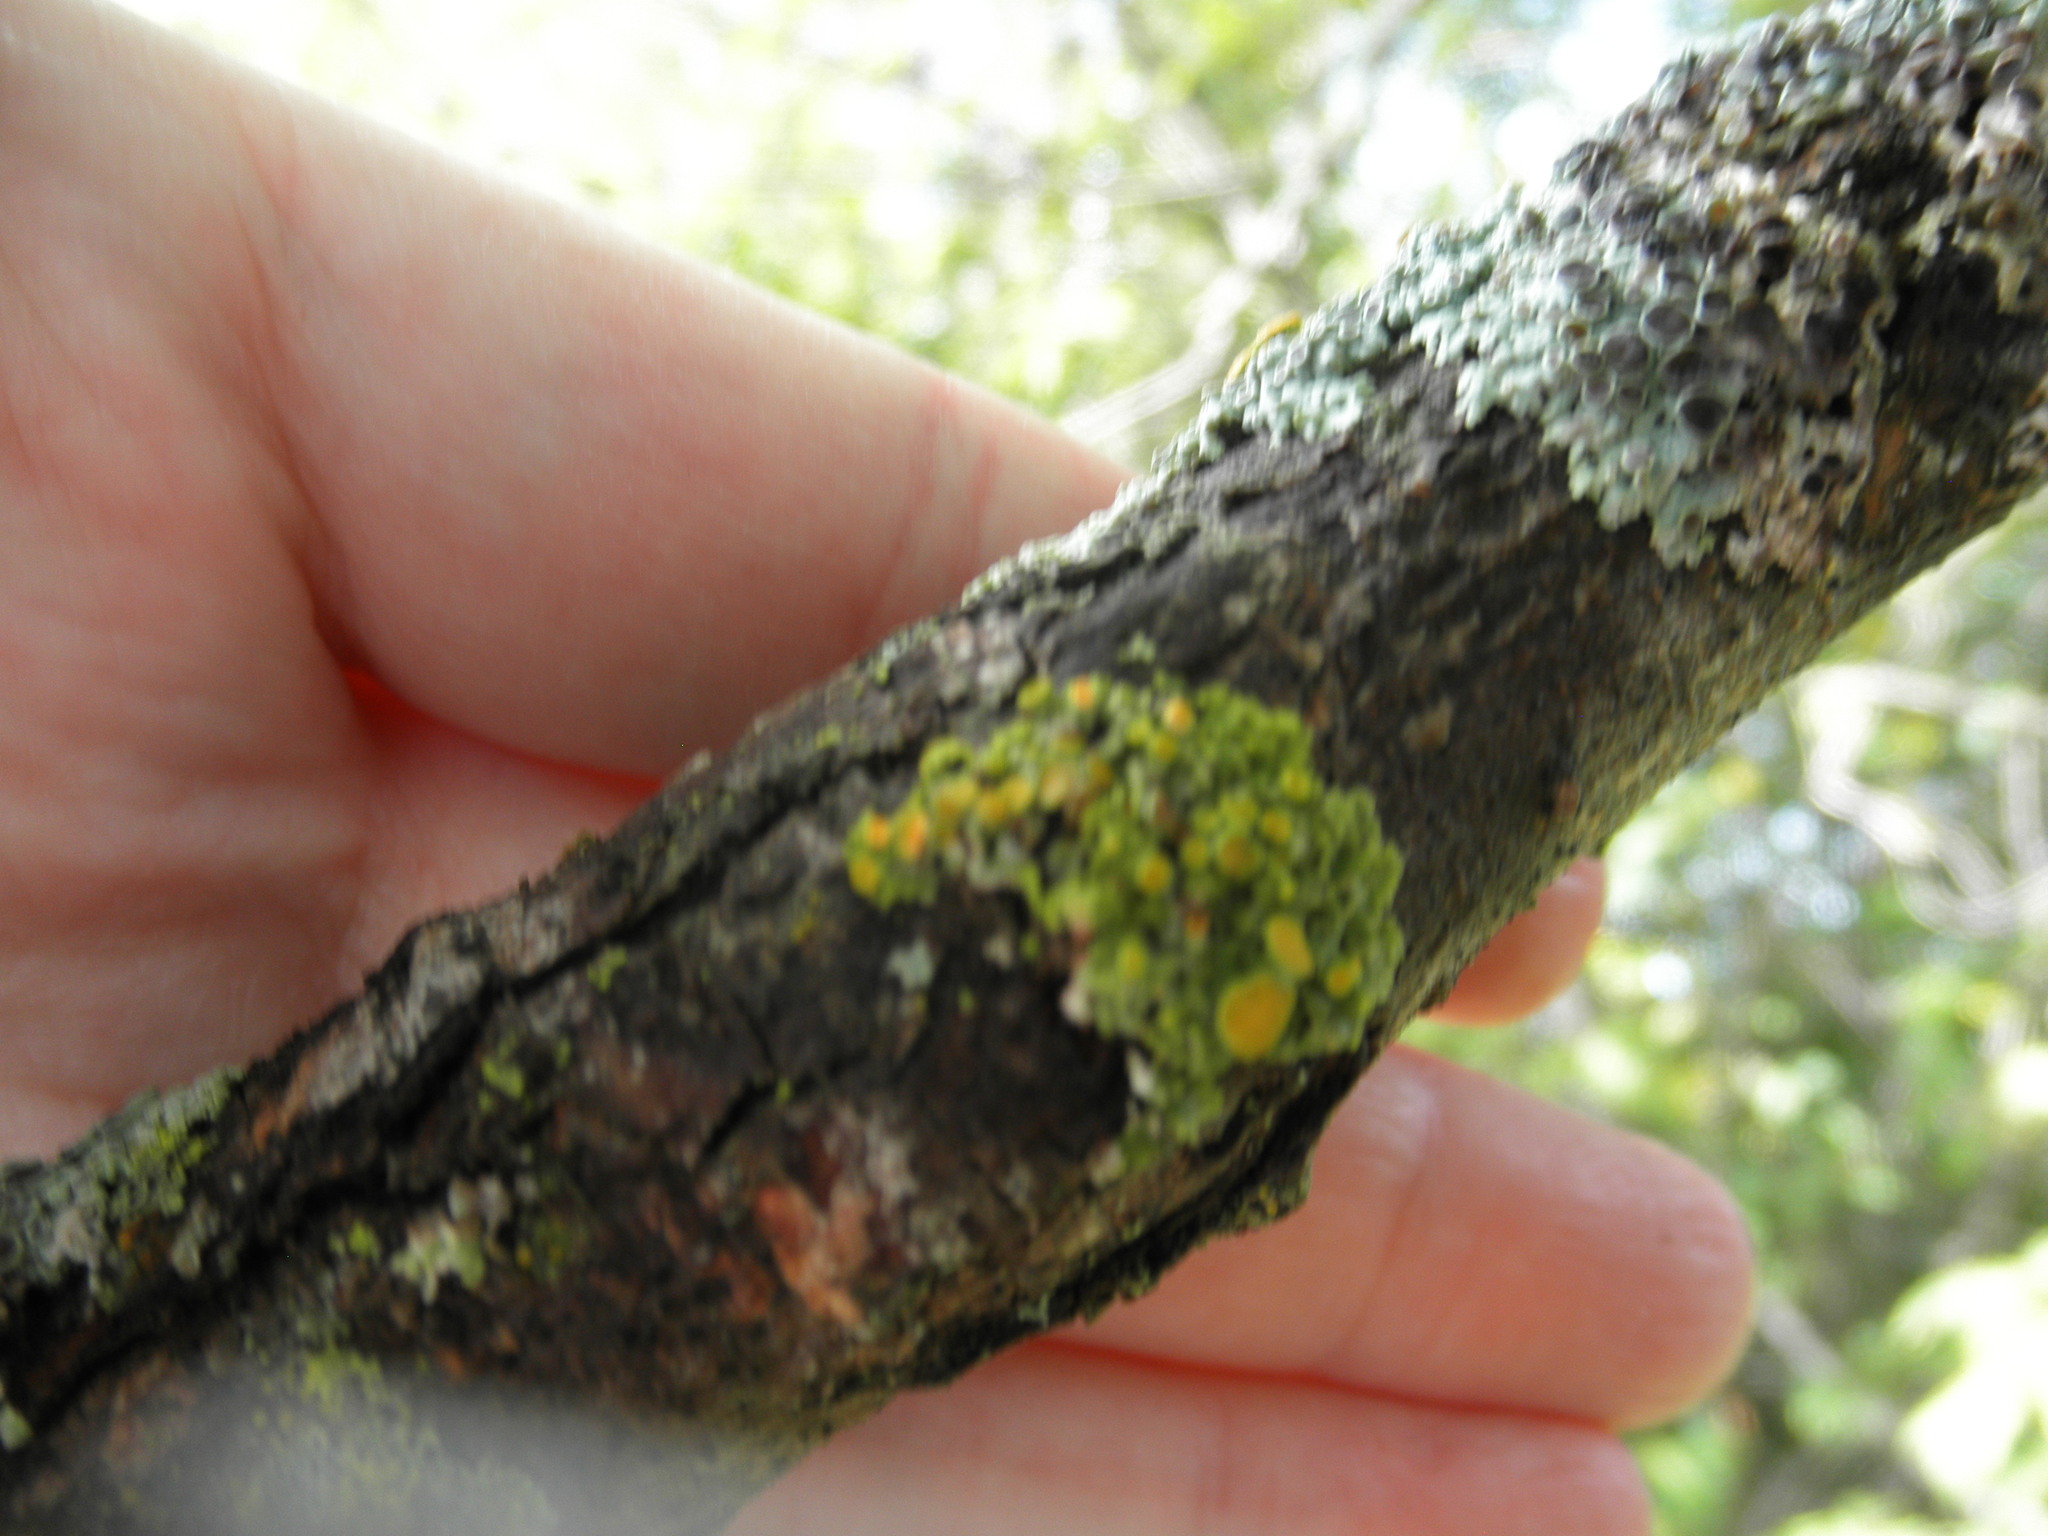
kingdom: Fungi
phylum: Ascomycota
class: Lecanoromycetes
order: Teloschistales
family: Teloschistaceae
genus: Gallowayella
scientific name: Gallowayella hasseana
